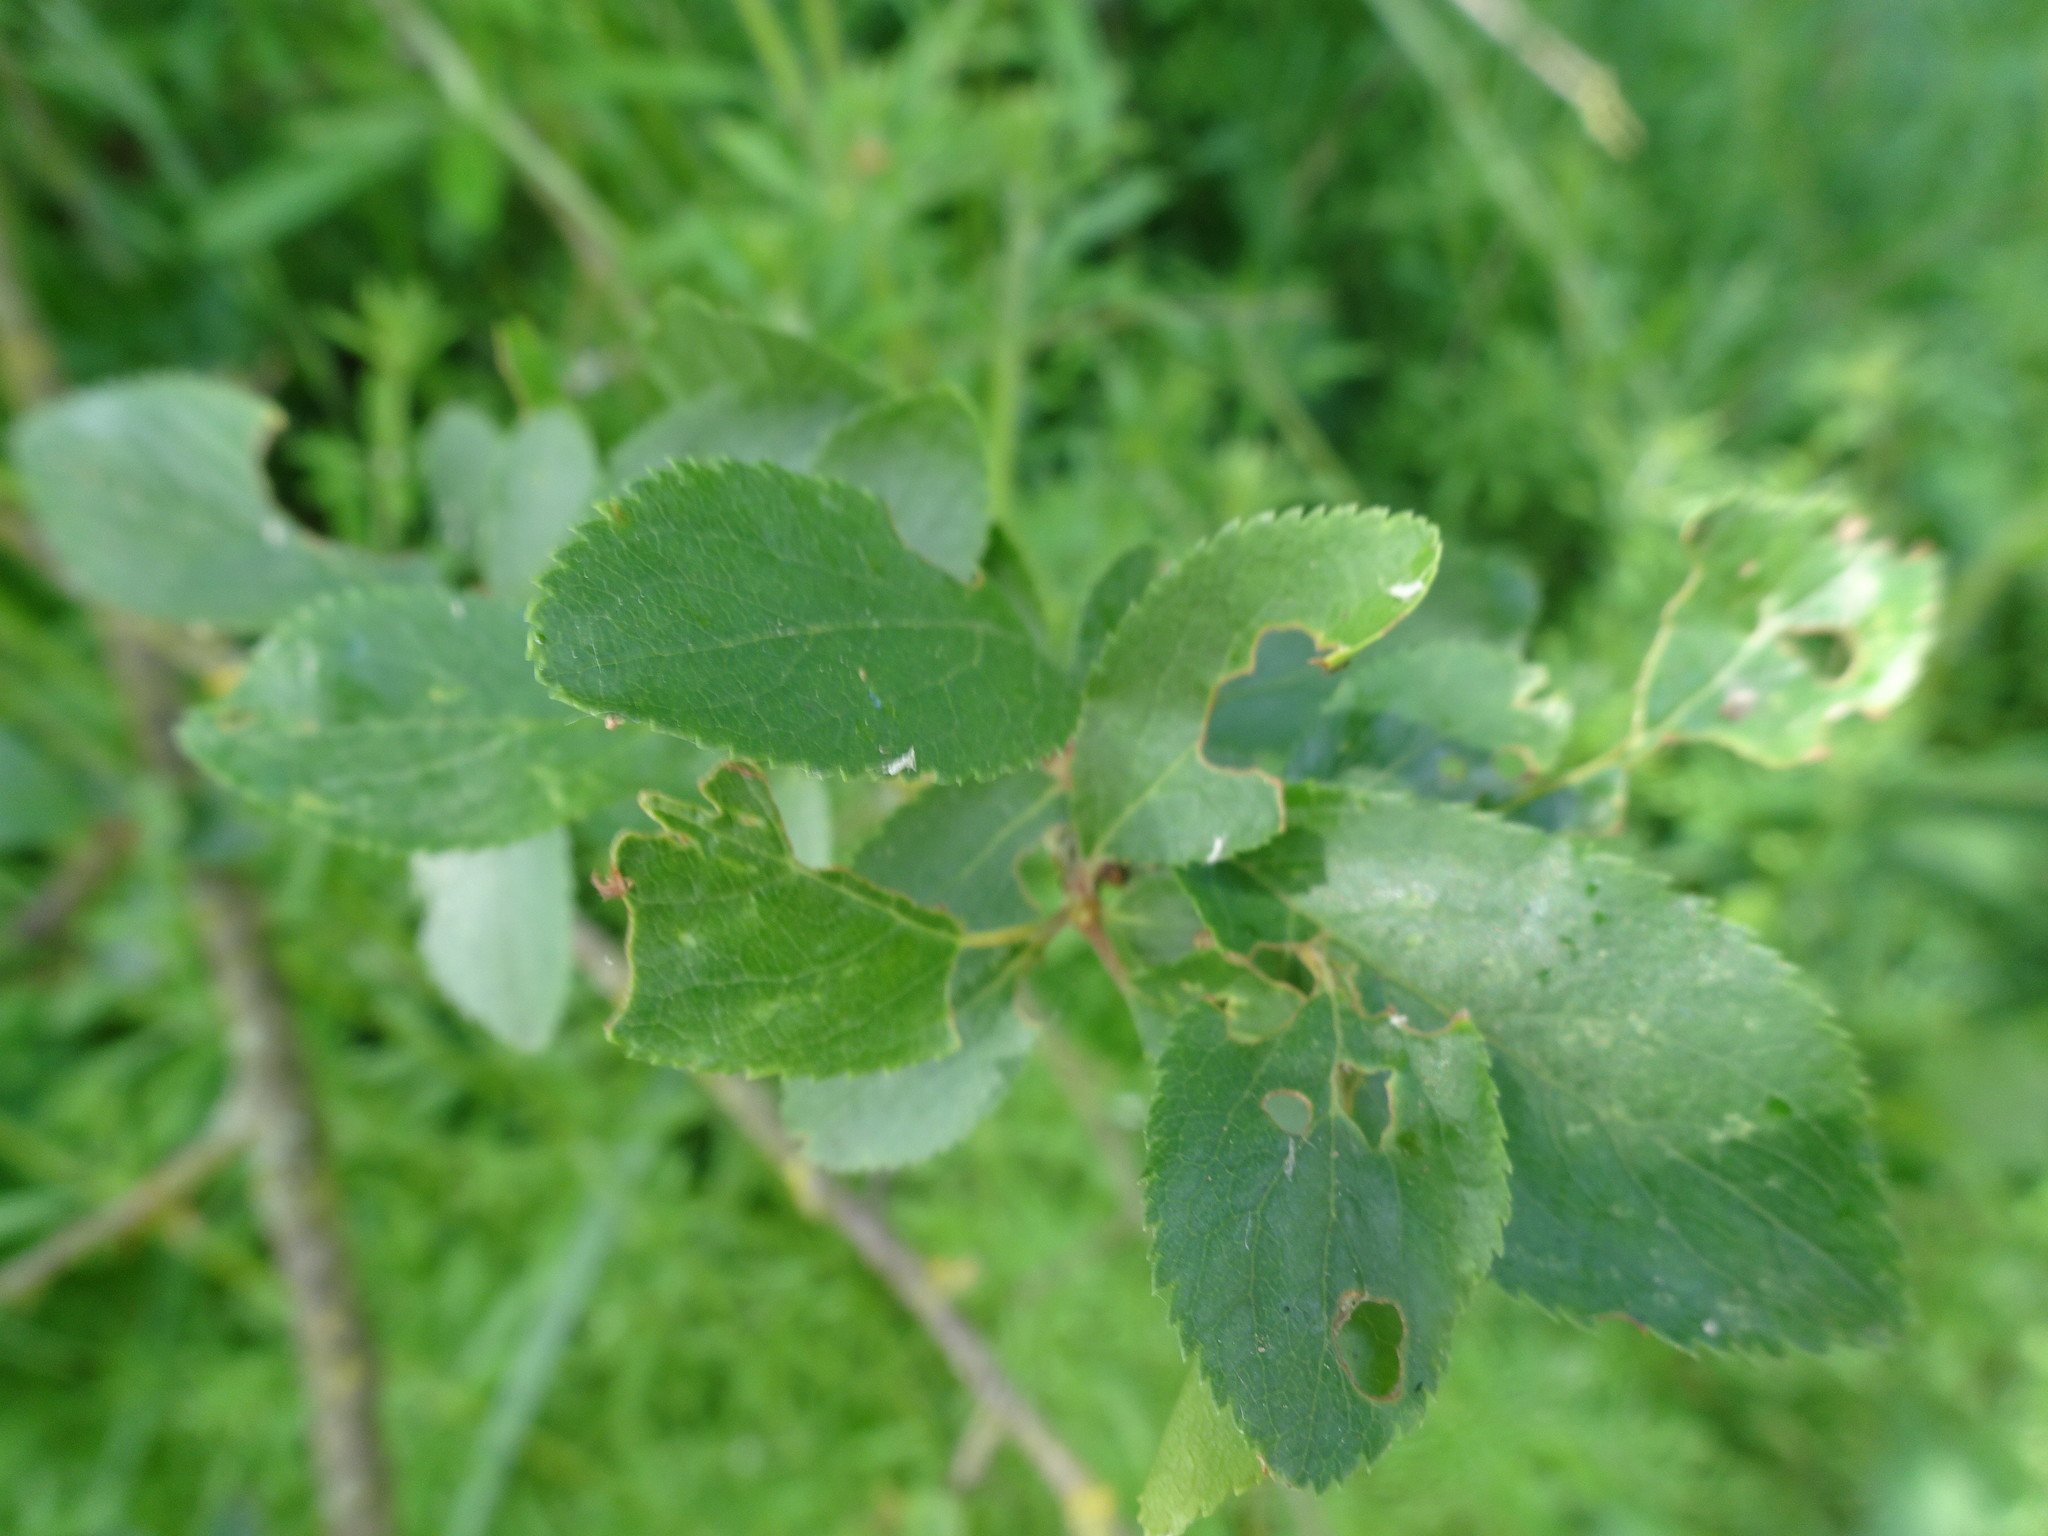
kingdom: Plantae
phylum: Tracheophyta
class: Magnoliopsida
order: Rosales
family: Rosaceae
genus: Prunus
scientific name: Prunus spinosa
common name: Blackthorn
